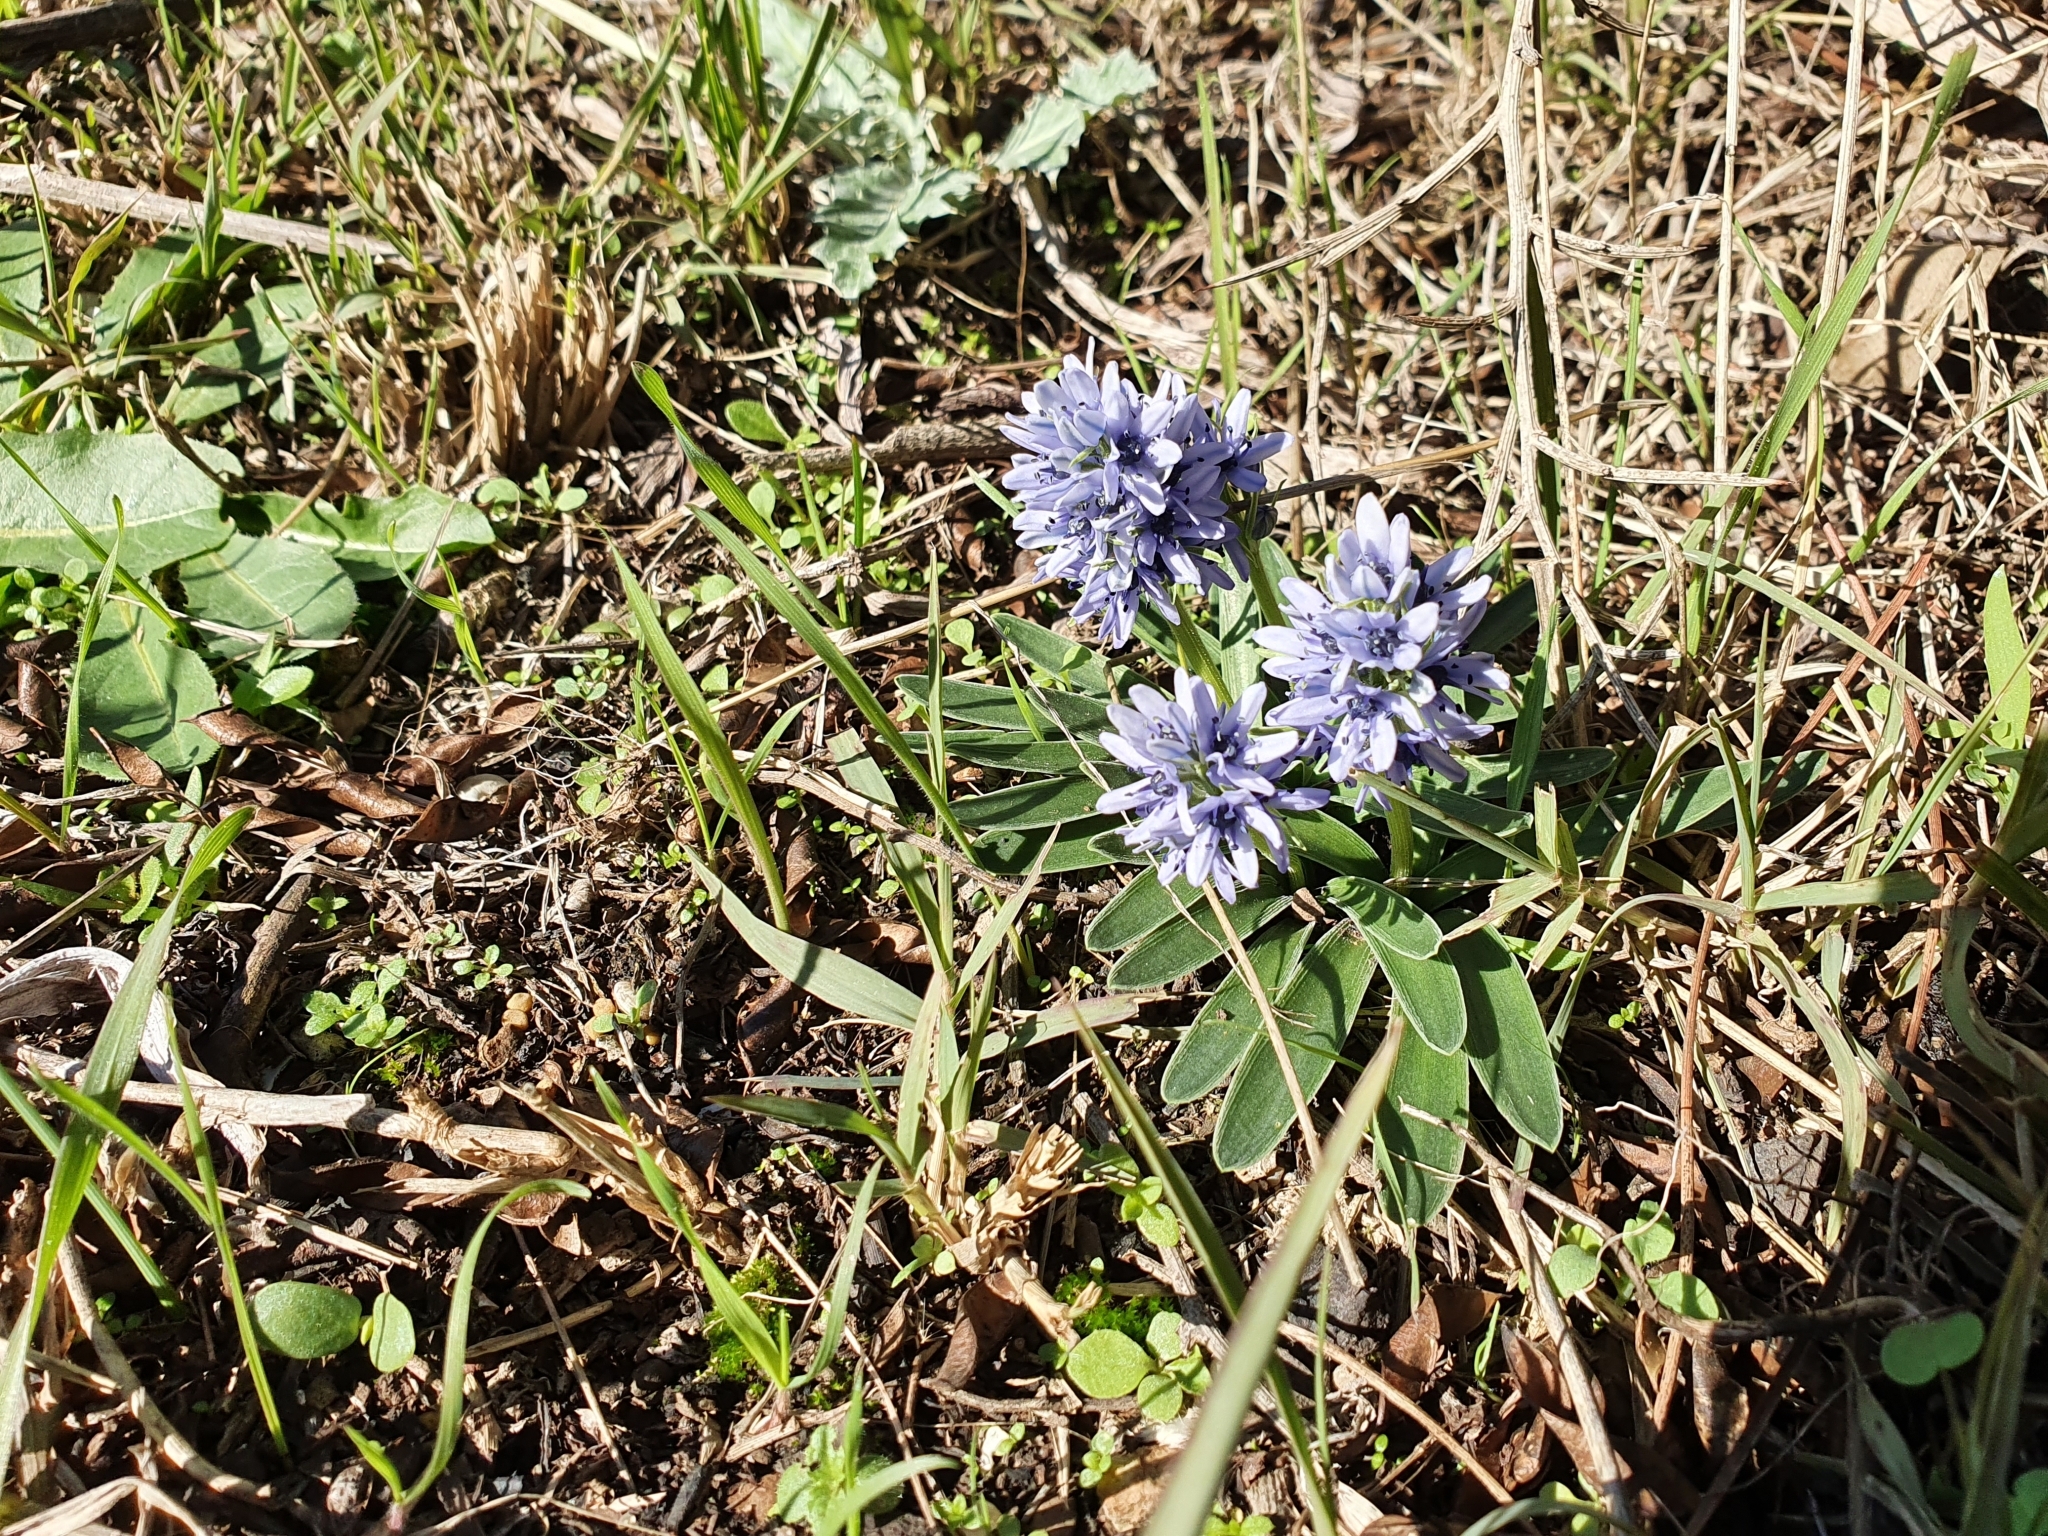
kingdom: Plantae
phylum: Tracheophyta
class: Liliopsida
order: Asparagales
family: Asparagaceae
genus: Hyacinthoides
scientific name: Hyacinthoides lingulata
